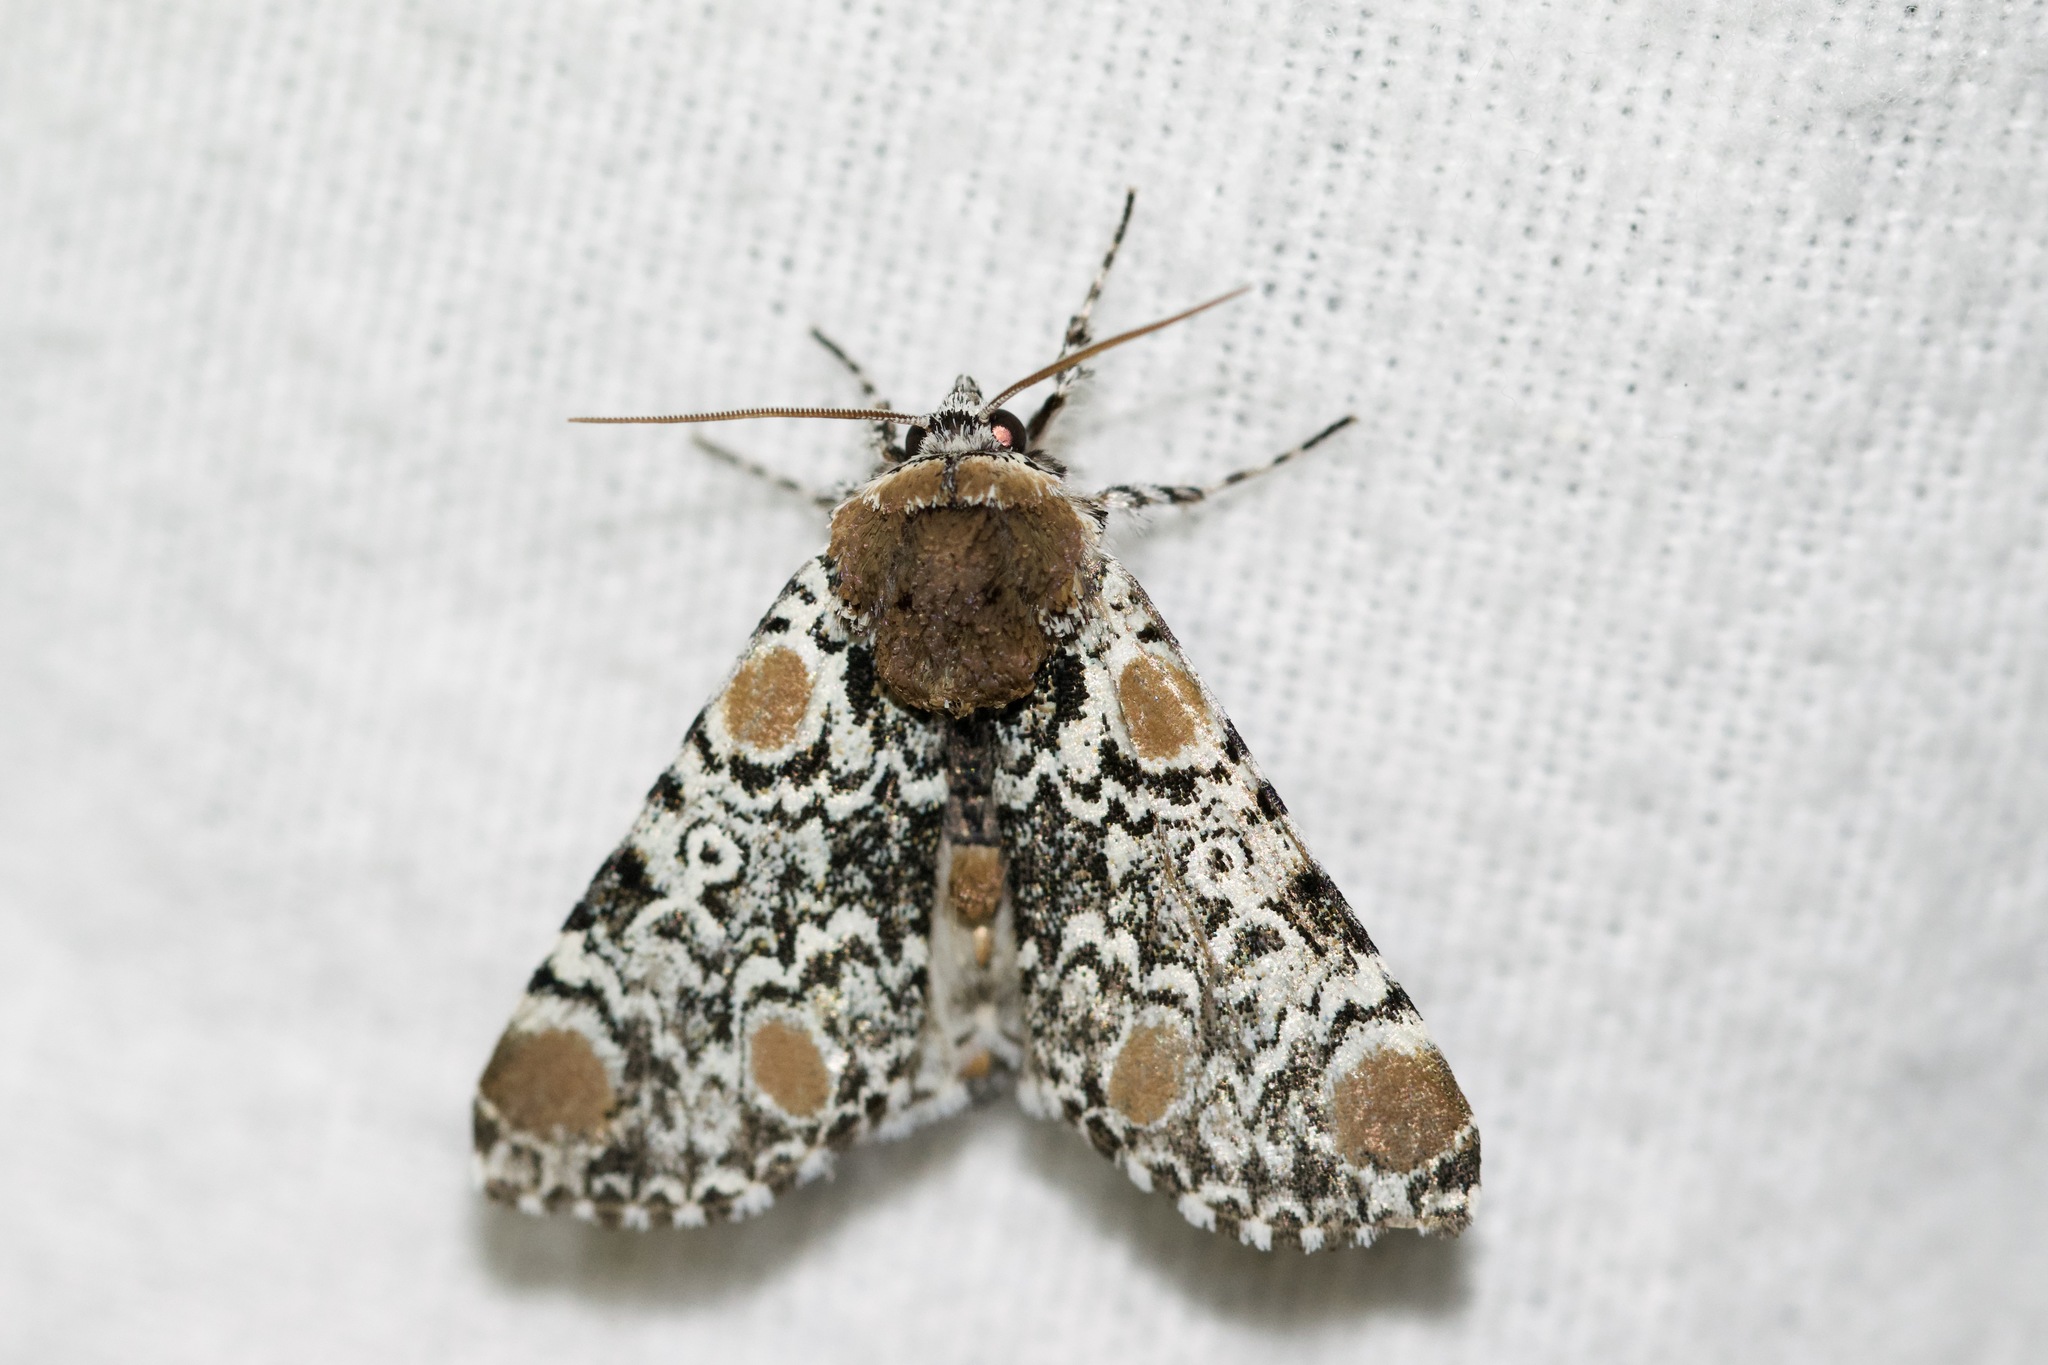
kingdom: Animalia
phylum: Arthropoda
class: Insecta
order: Lepidoptera
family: Noctuidae
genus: Harrisimemna
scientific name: Harrisimemna trisignata
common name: Harris threespot
